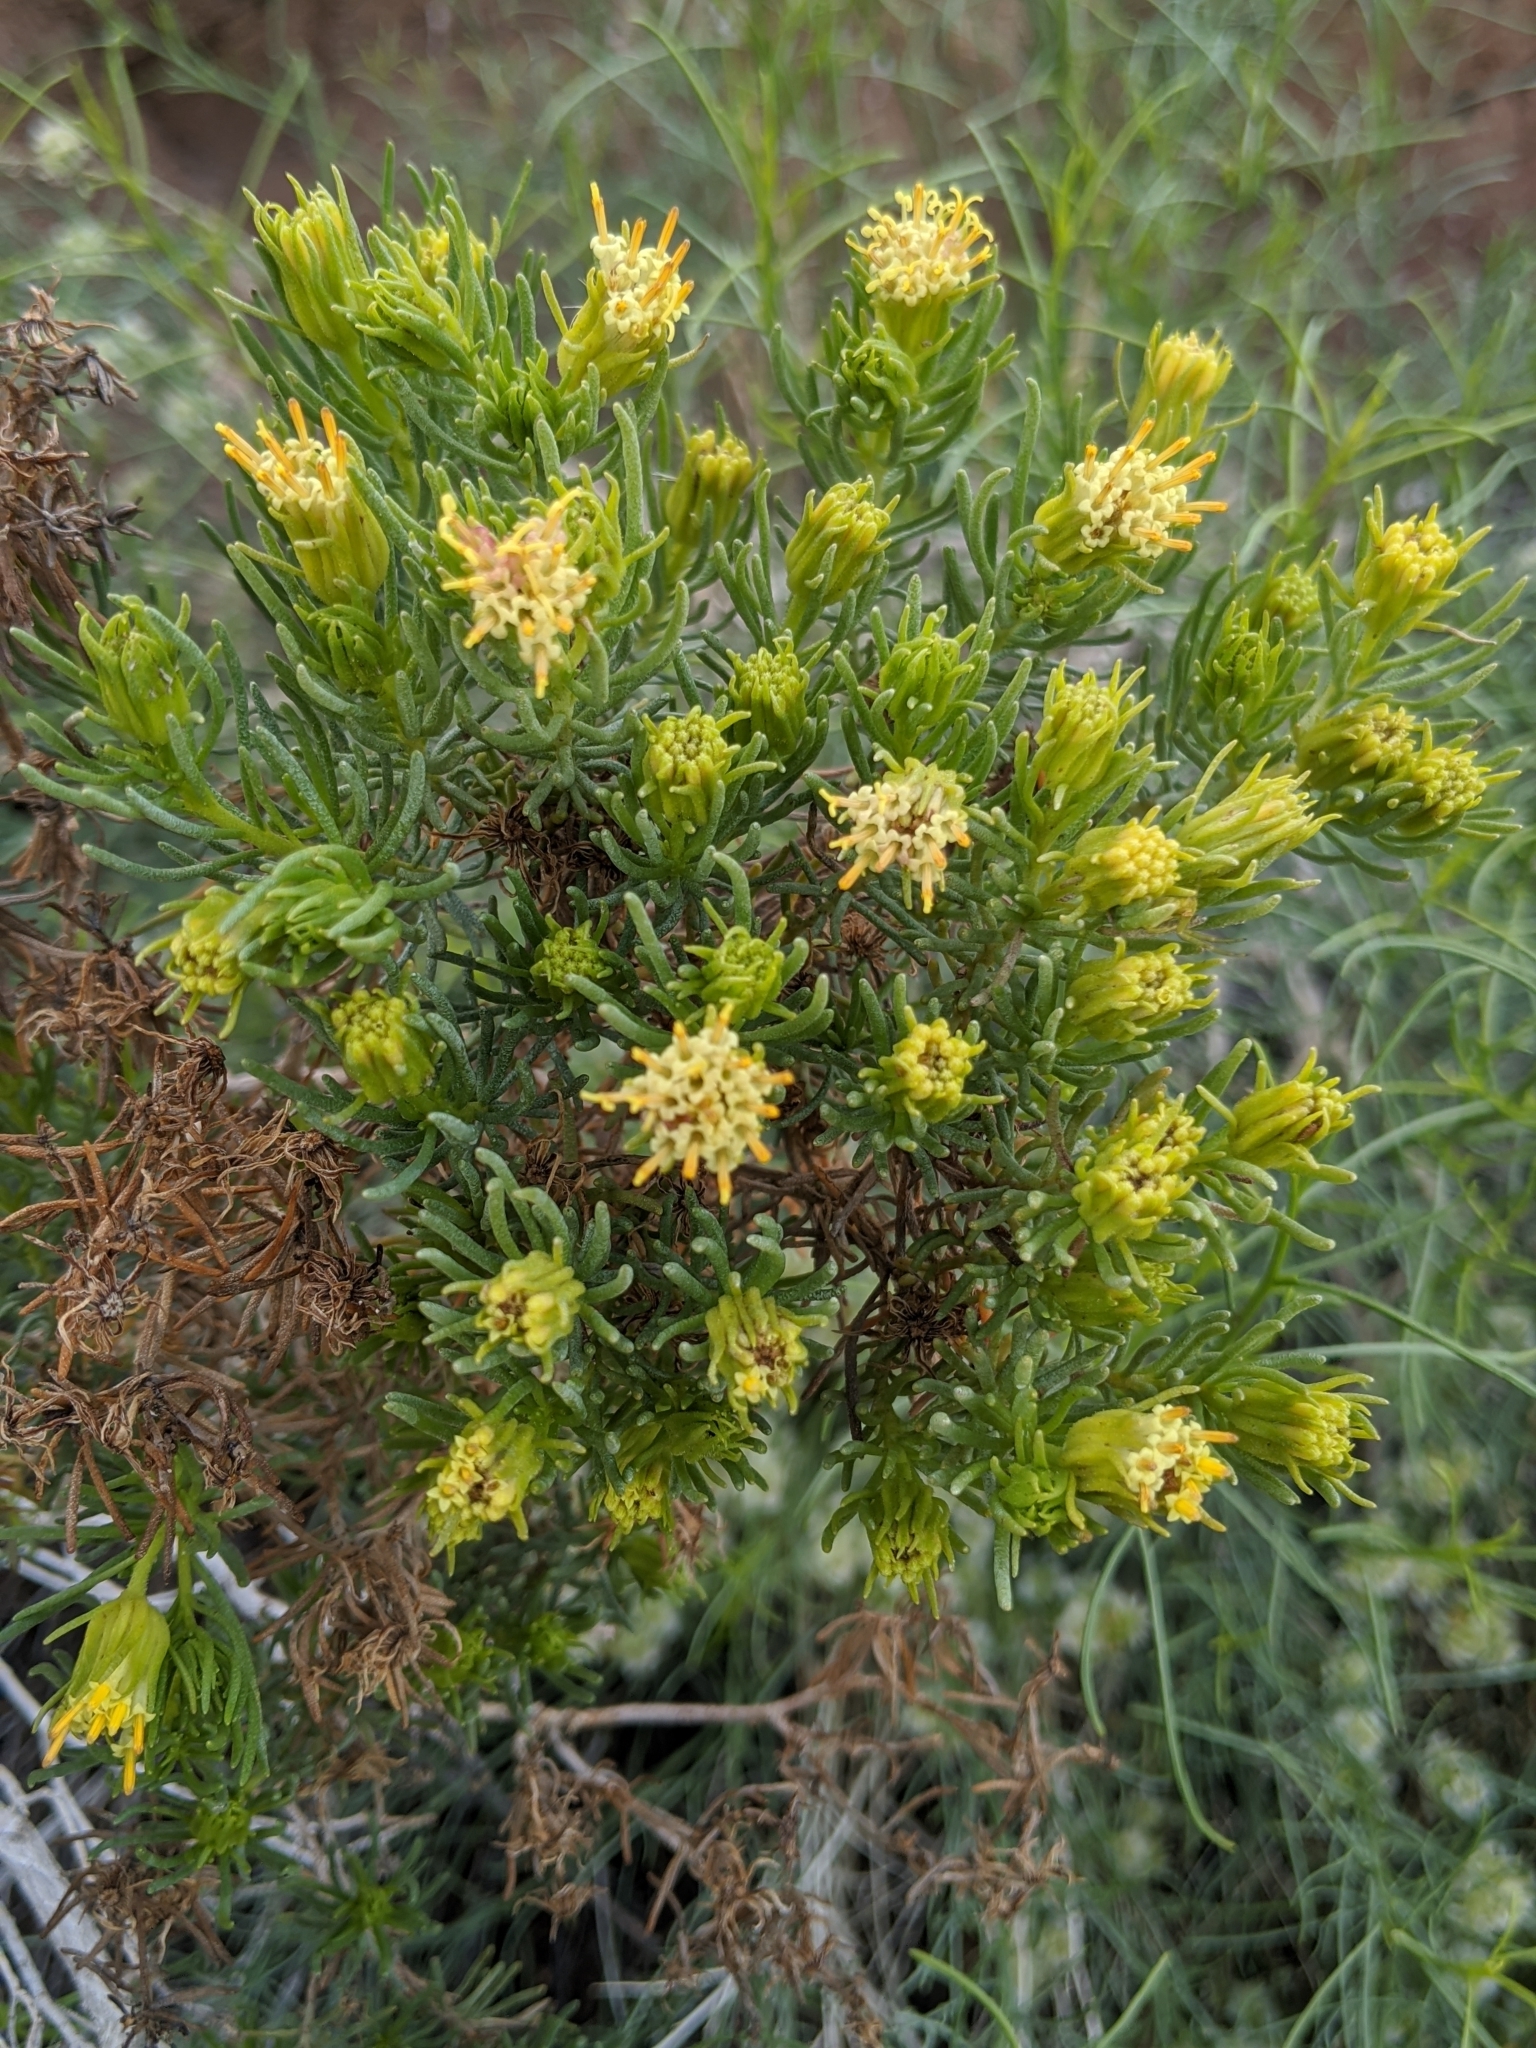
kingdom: Plantae
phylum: Tracheophyta
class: Magnoliopsida
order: Asterales
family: Asteraceae
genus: Peucephyllum
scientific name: Peucephyllum schottii
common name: Pygmy-cedar
